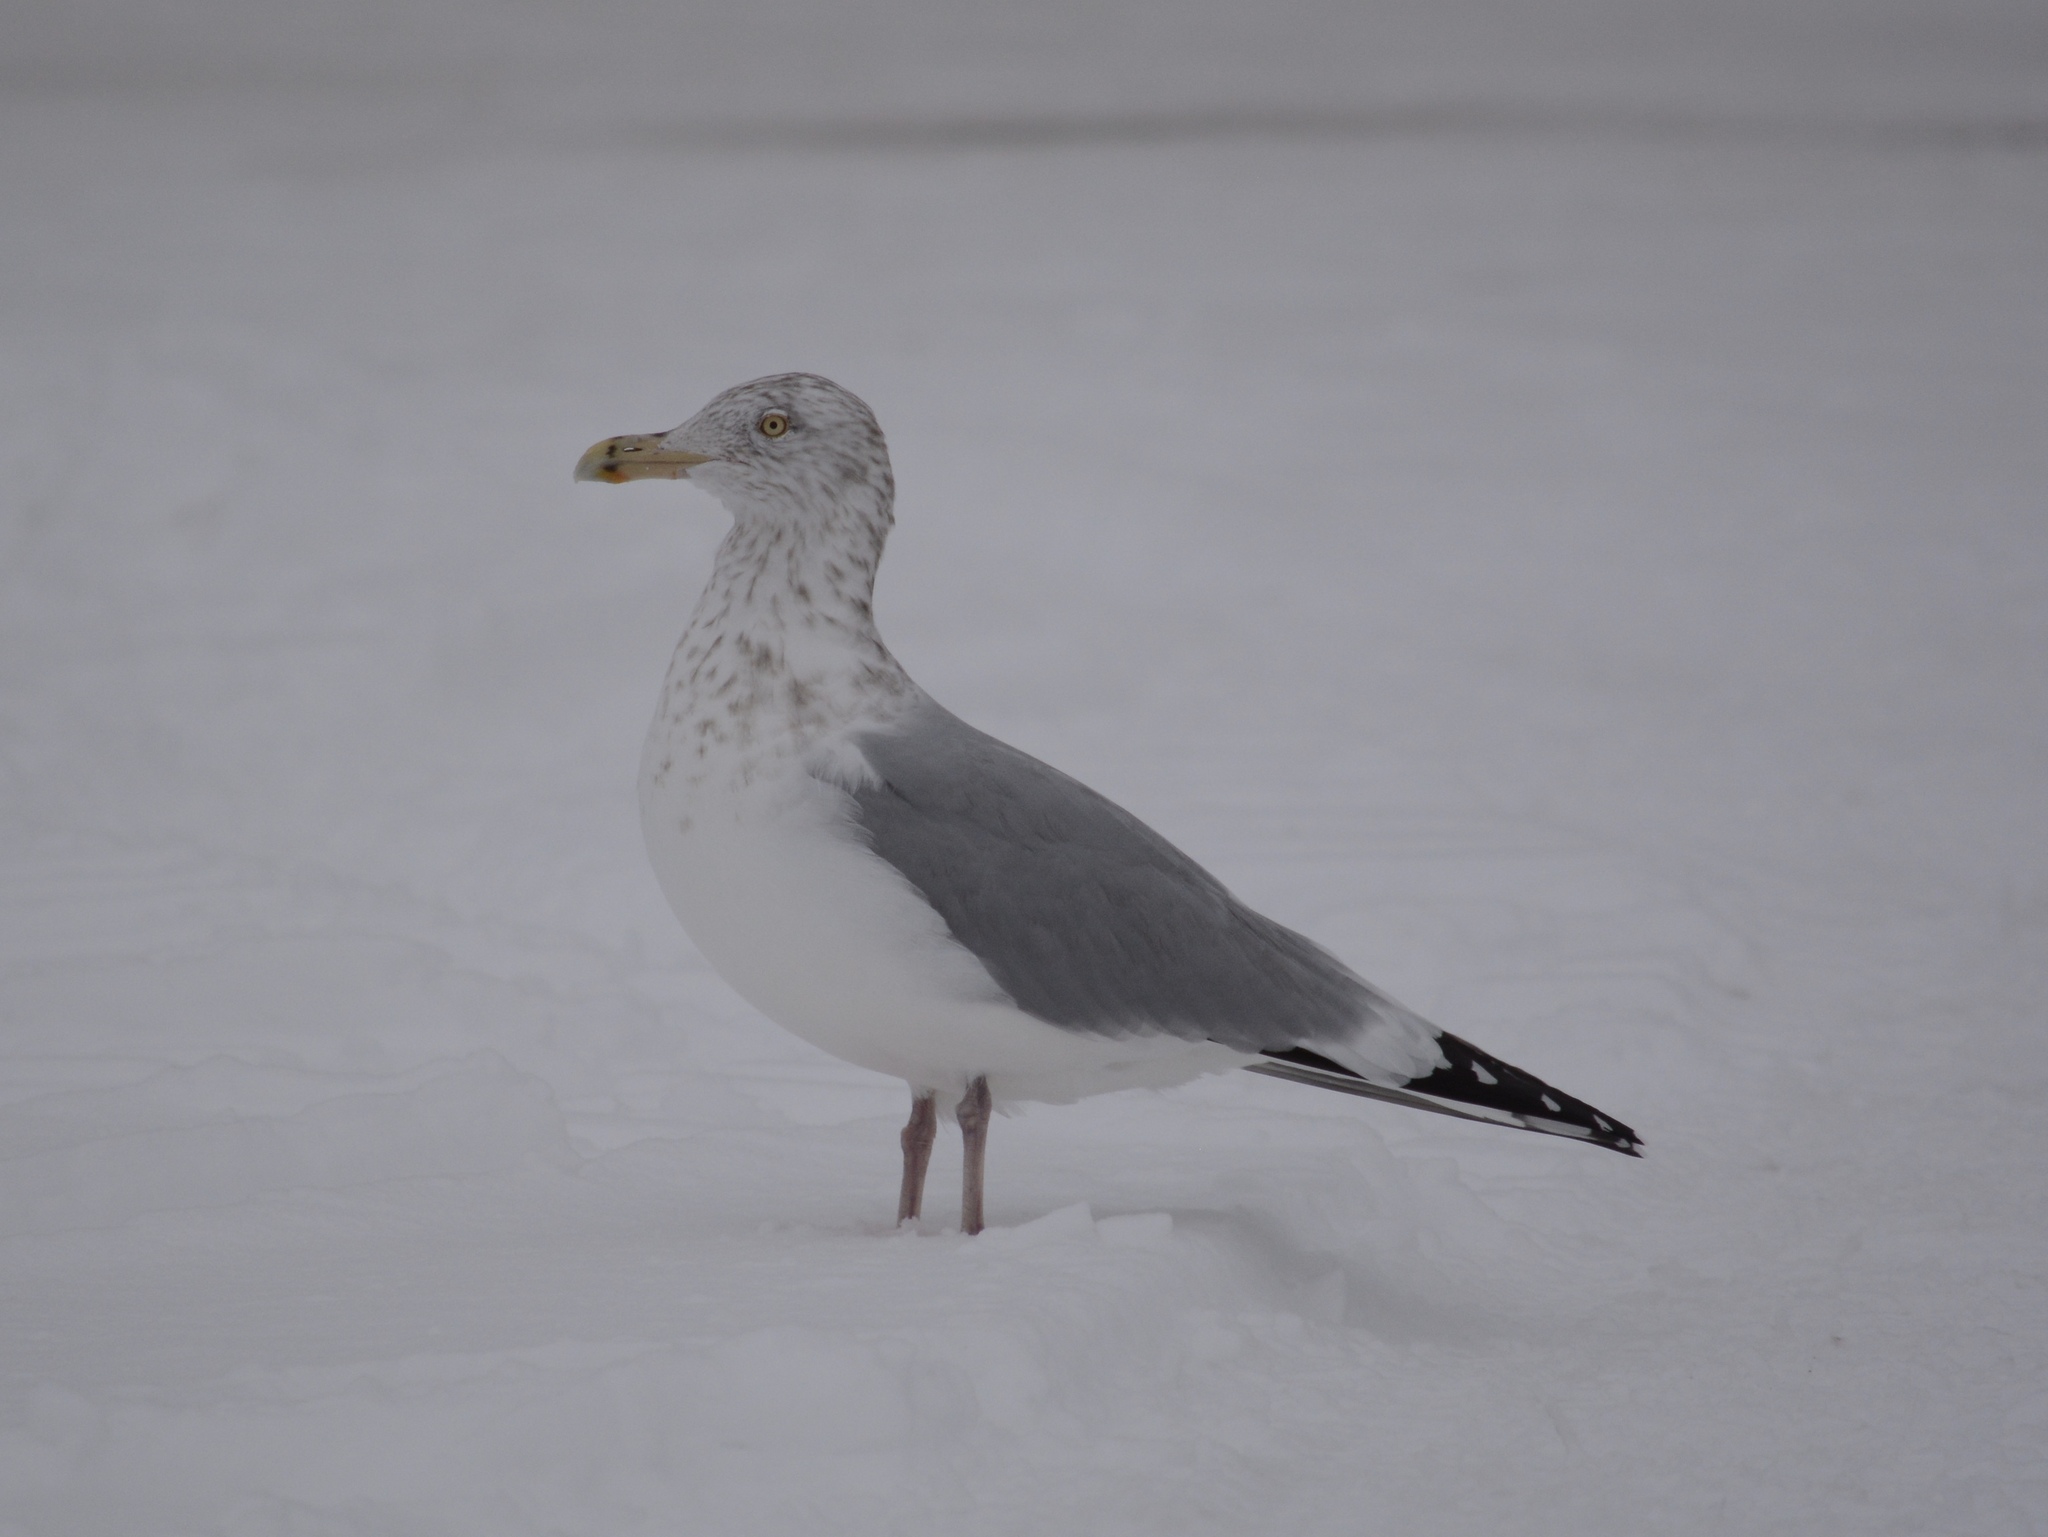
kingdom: Animalia
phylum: Chordata
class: Aves
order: Charadriiformes
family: Laridae
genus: Larus
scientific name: Larus argentatus
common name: Herring gull
